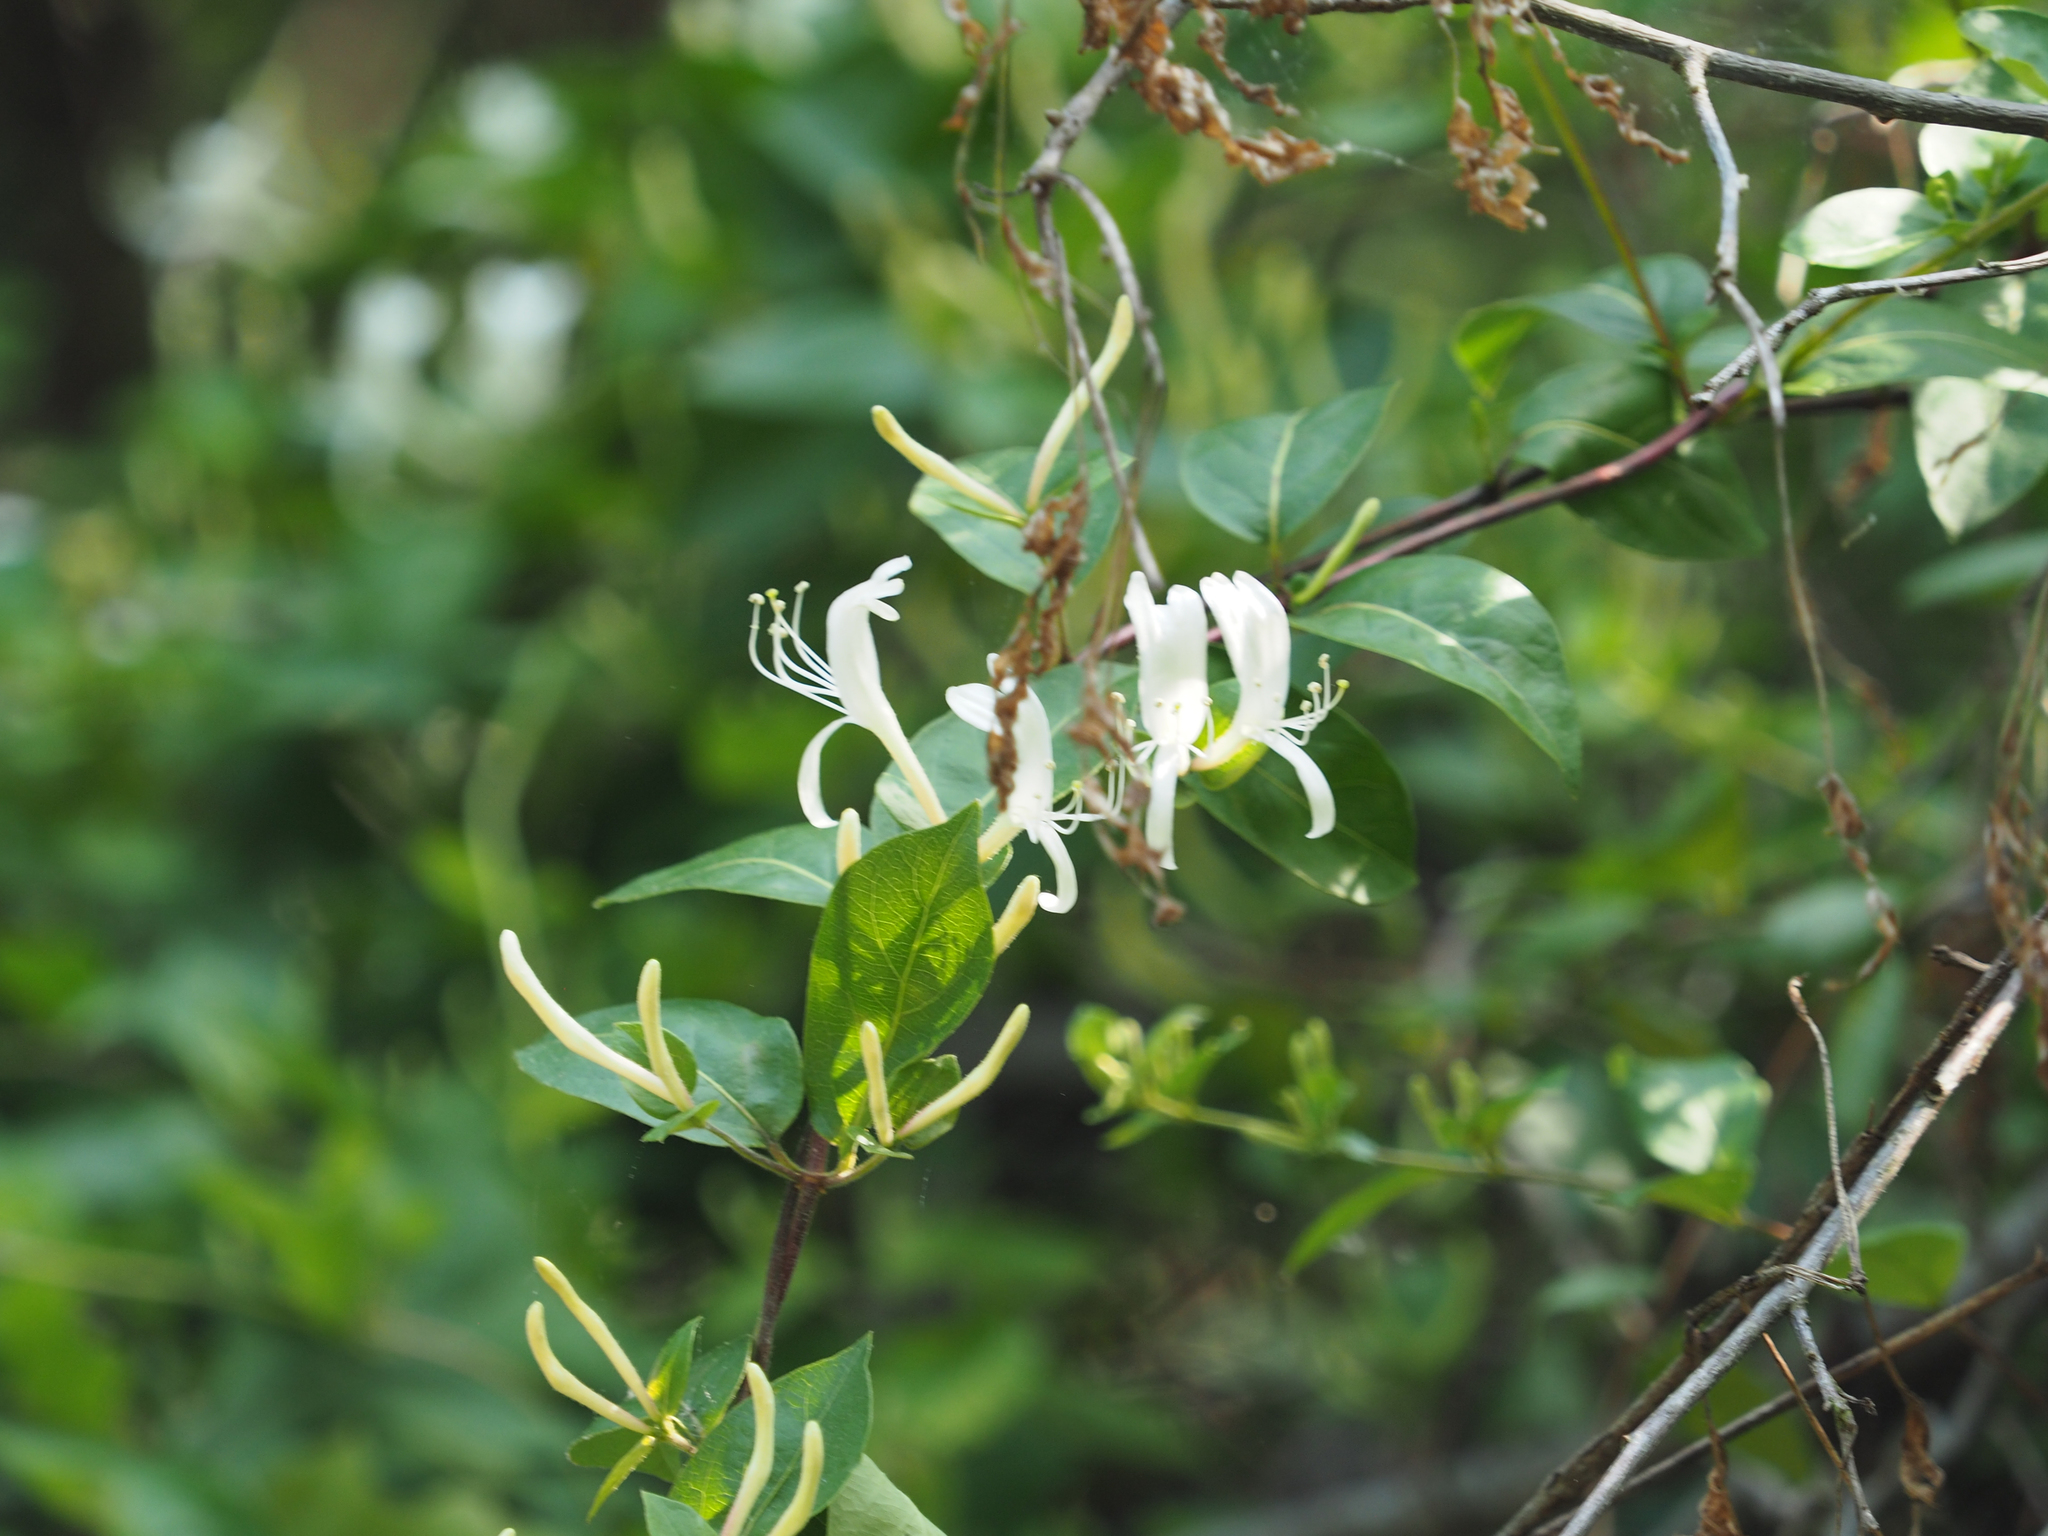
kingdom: Plantae
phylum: Tracheophyta
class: Magnoliopsida
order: Dipsacales
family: Caprifoliaceae
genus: Lonicera
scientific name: Lonicera japonica
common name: Japanese honeysuckle
